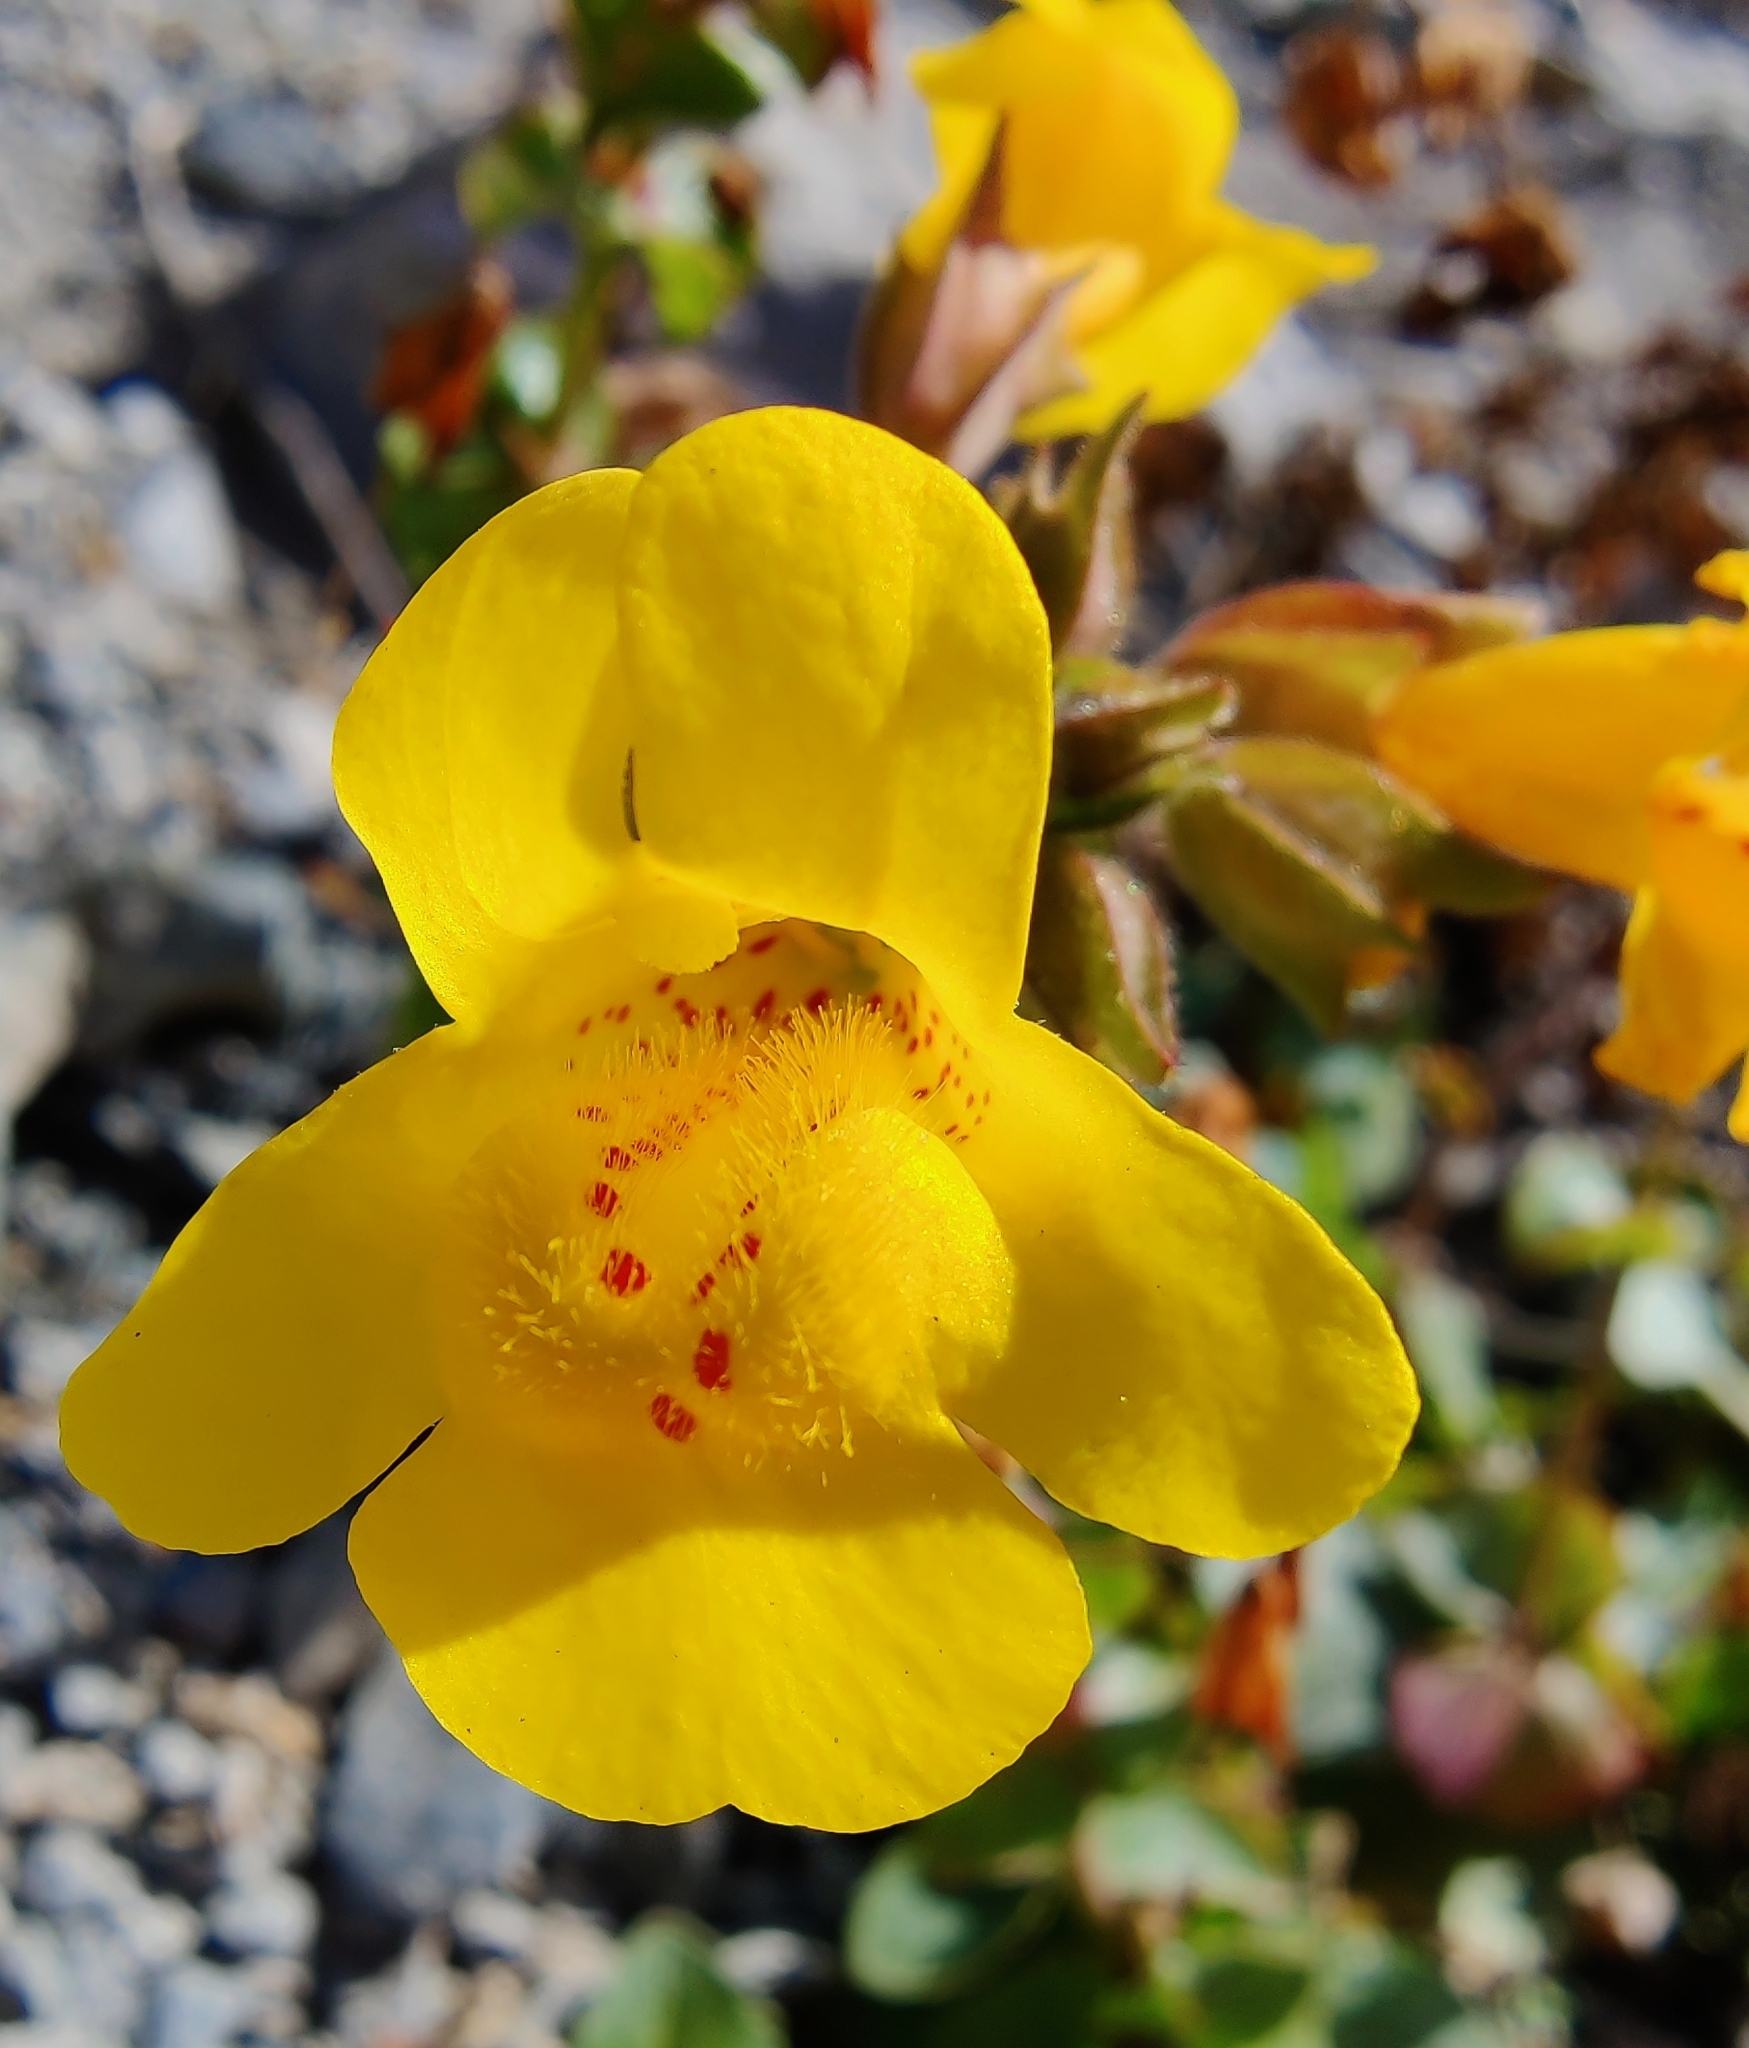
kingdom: Plantae
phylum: Tracheophyta
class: Magnoliopsida
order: Lamiales
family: Phrymaceae
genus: Erythranthe
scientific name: Erythranthe grandis
